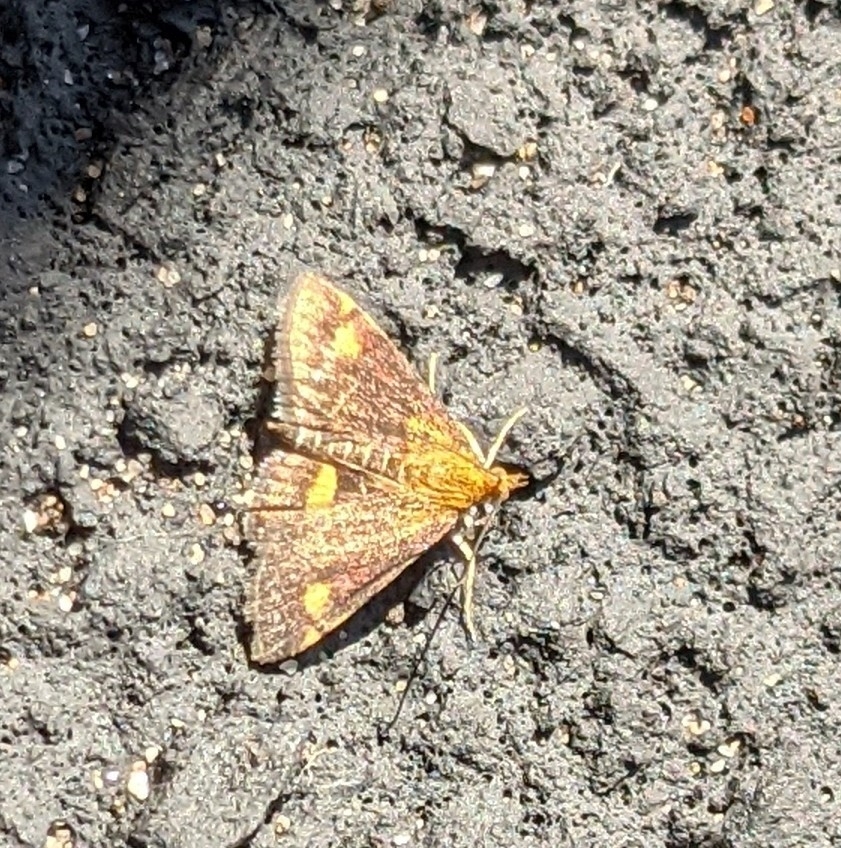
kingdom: Animalia
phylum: Arthropoda
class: Insecta
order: Lepidoptera
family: Crambidae
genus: Pyrausta
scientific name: Pyrausta aurata
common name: Small purple & gold
